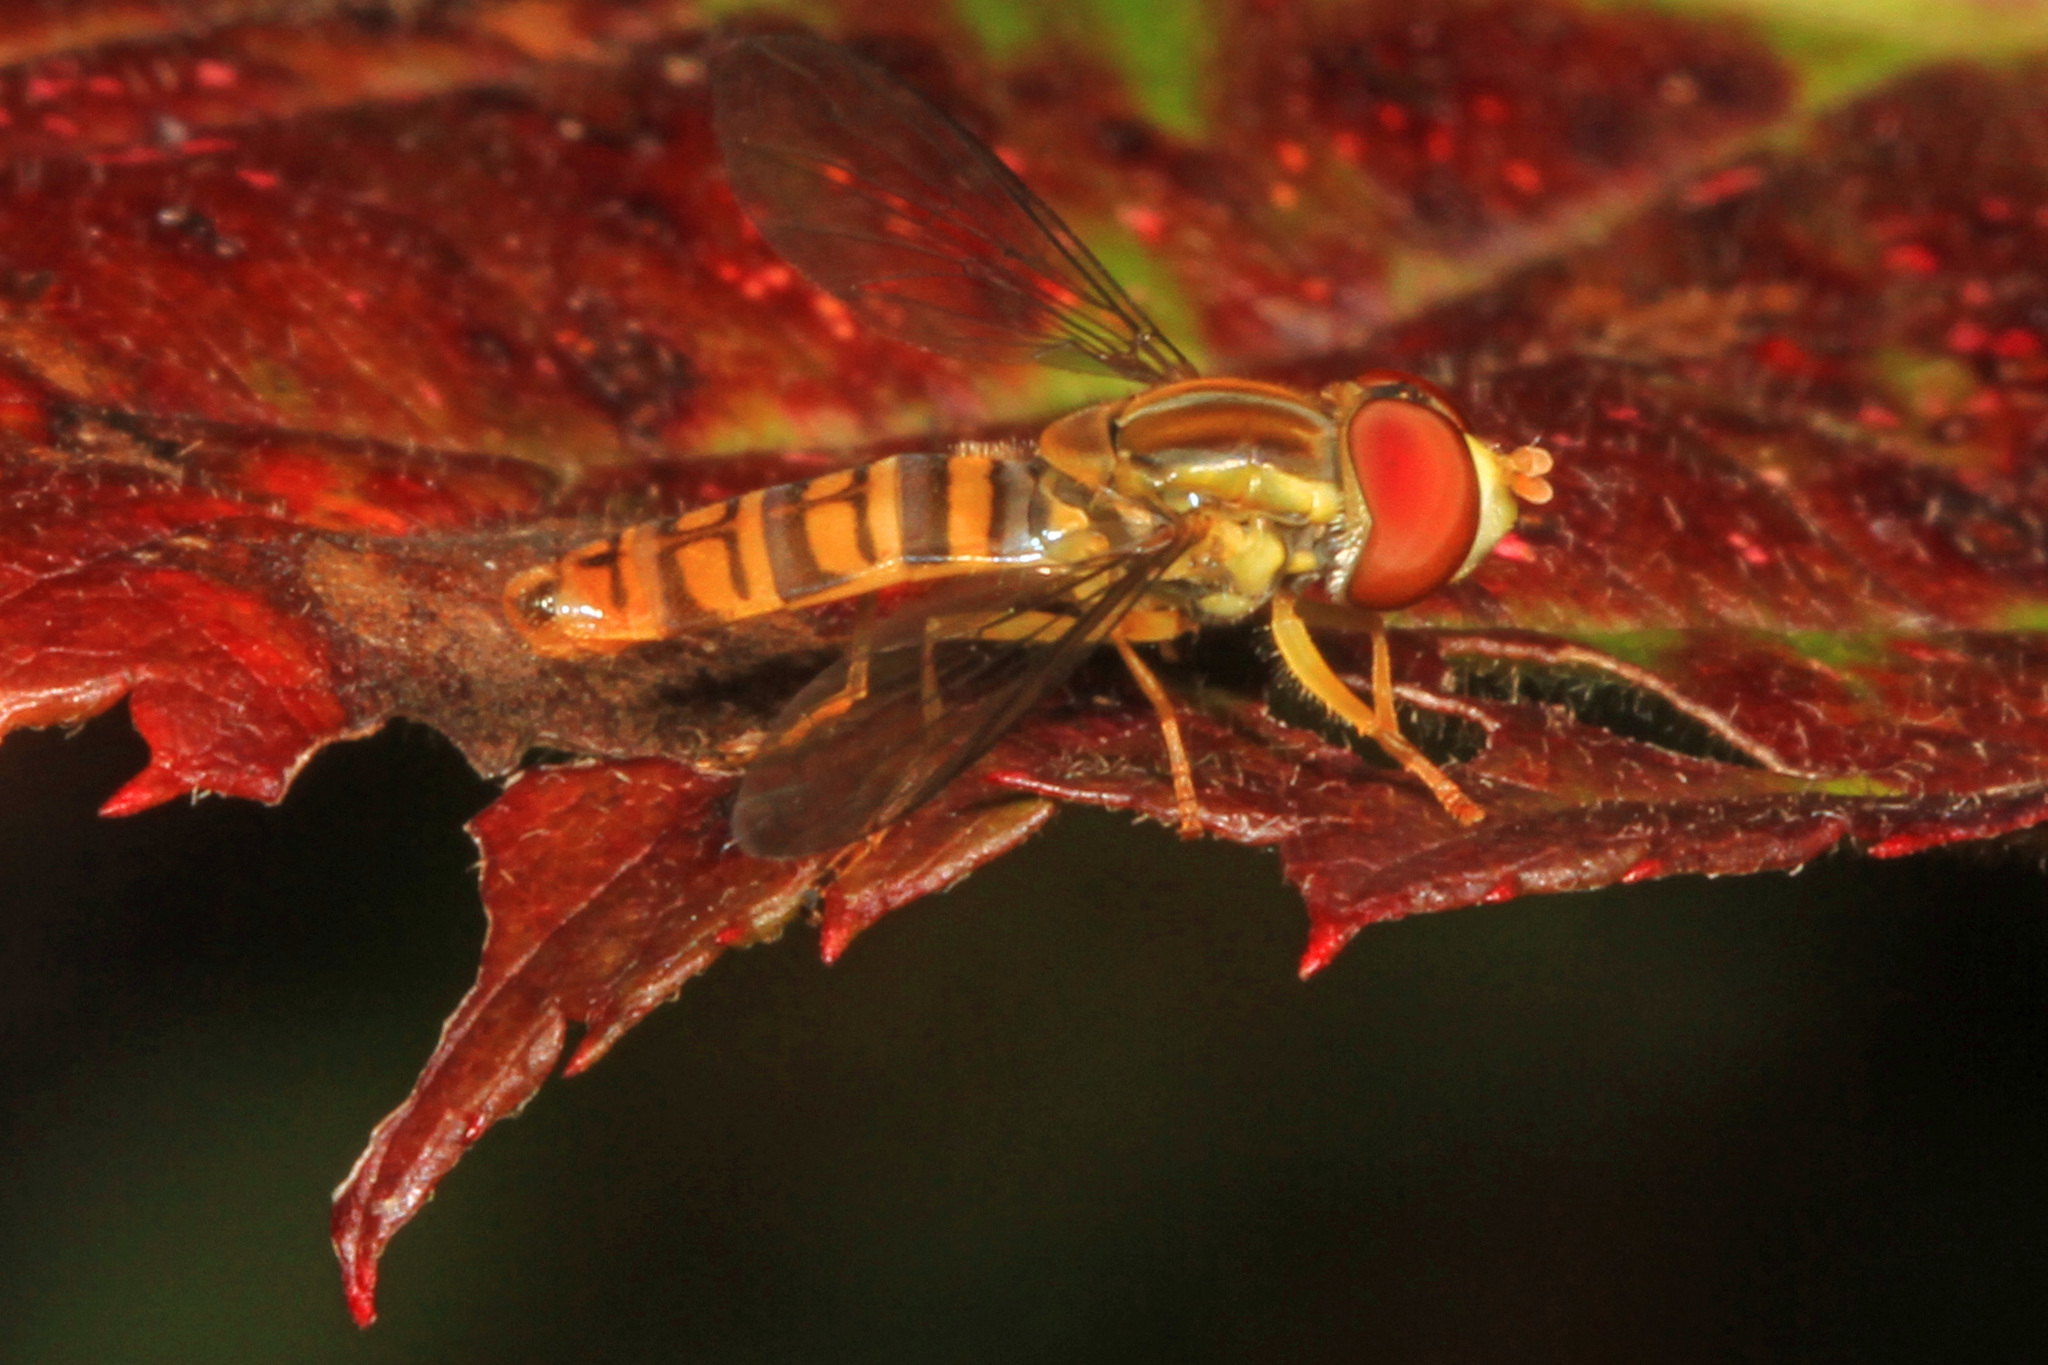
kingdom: Animalia
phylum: Arthropoda
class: Insecta
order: Diptera
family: Syrphidae
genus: Toxomerus
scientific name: Toxomerus politus
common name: Maize calligrapher
